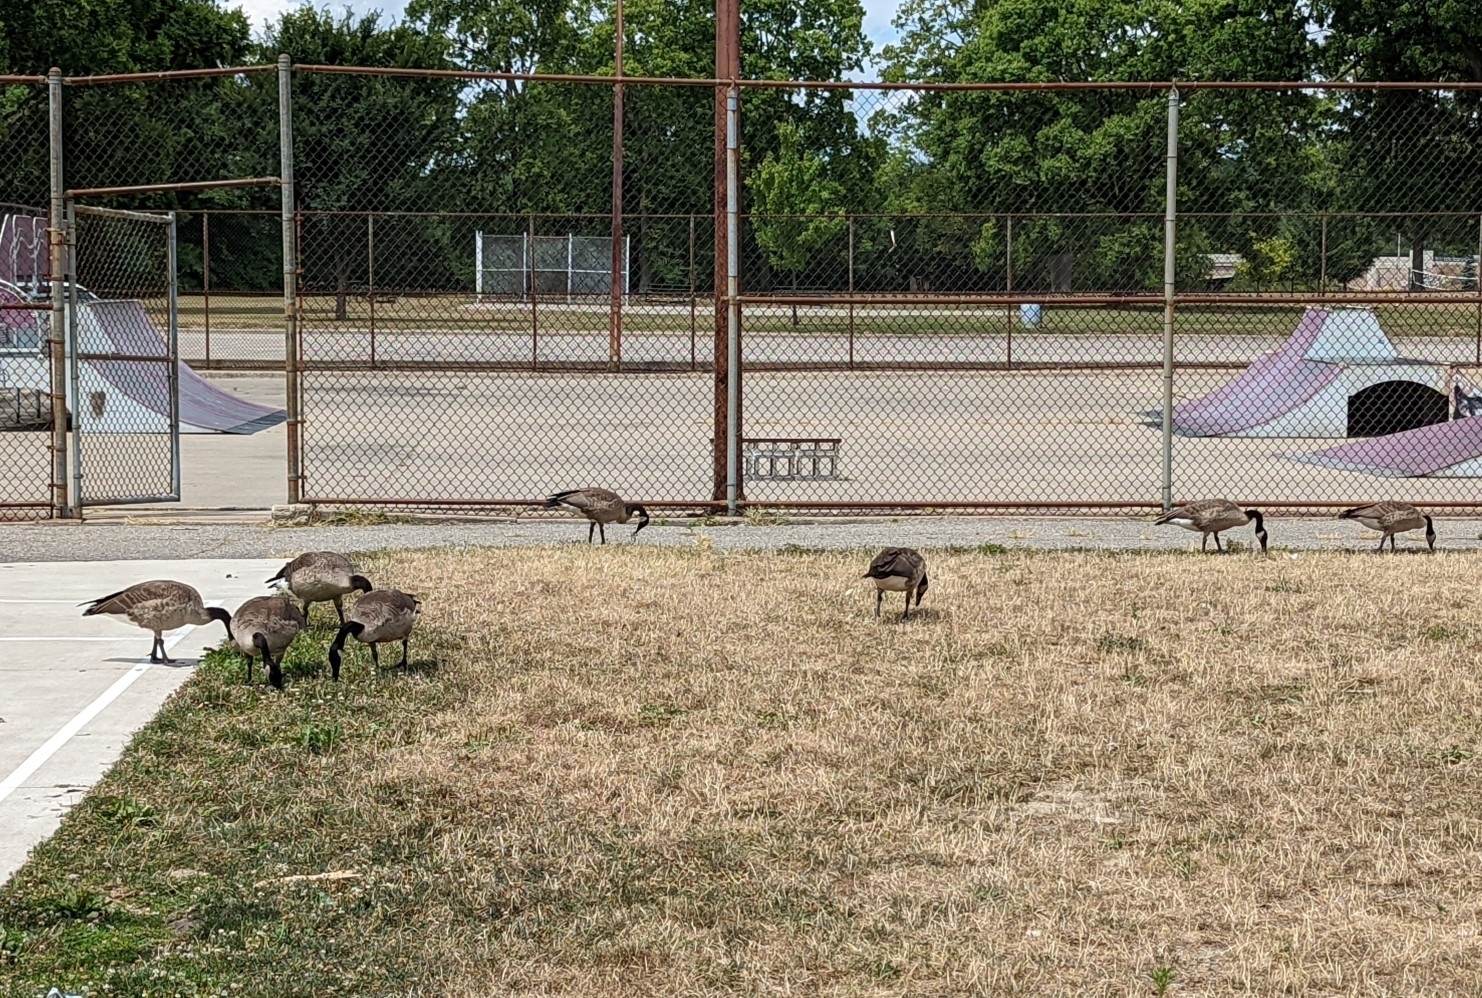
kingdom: Animalia
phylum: Chordata
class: Aves
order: Anseriformes
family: Anatidae
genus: Branta
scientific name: Branta canadensis
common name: Canada goose
